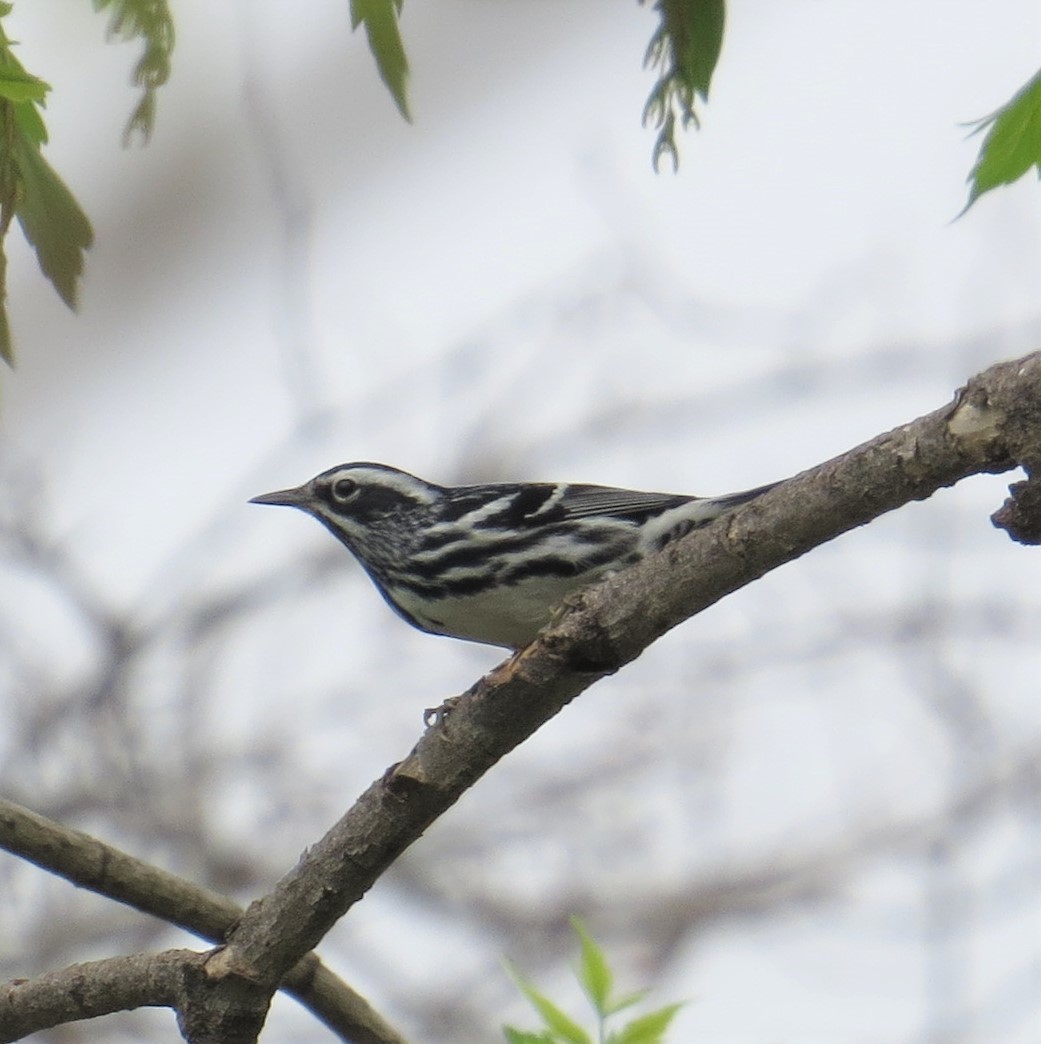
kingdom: Animalia
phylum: Chordata
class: Aves
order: Passeriformes
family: Parulidae
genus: Mniotilta
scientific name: Mniotilta varia
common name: Black-and-white warbler
